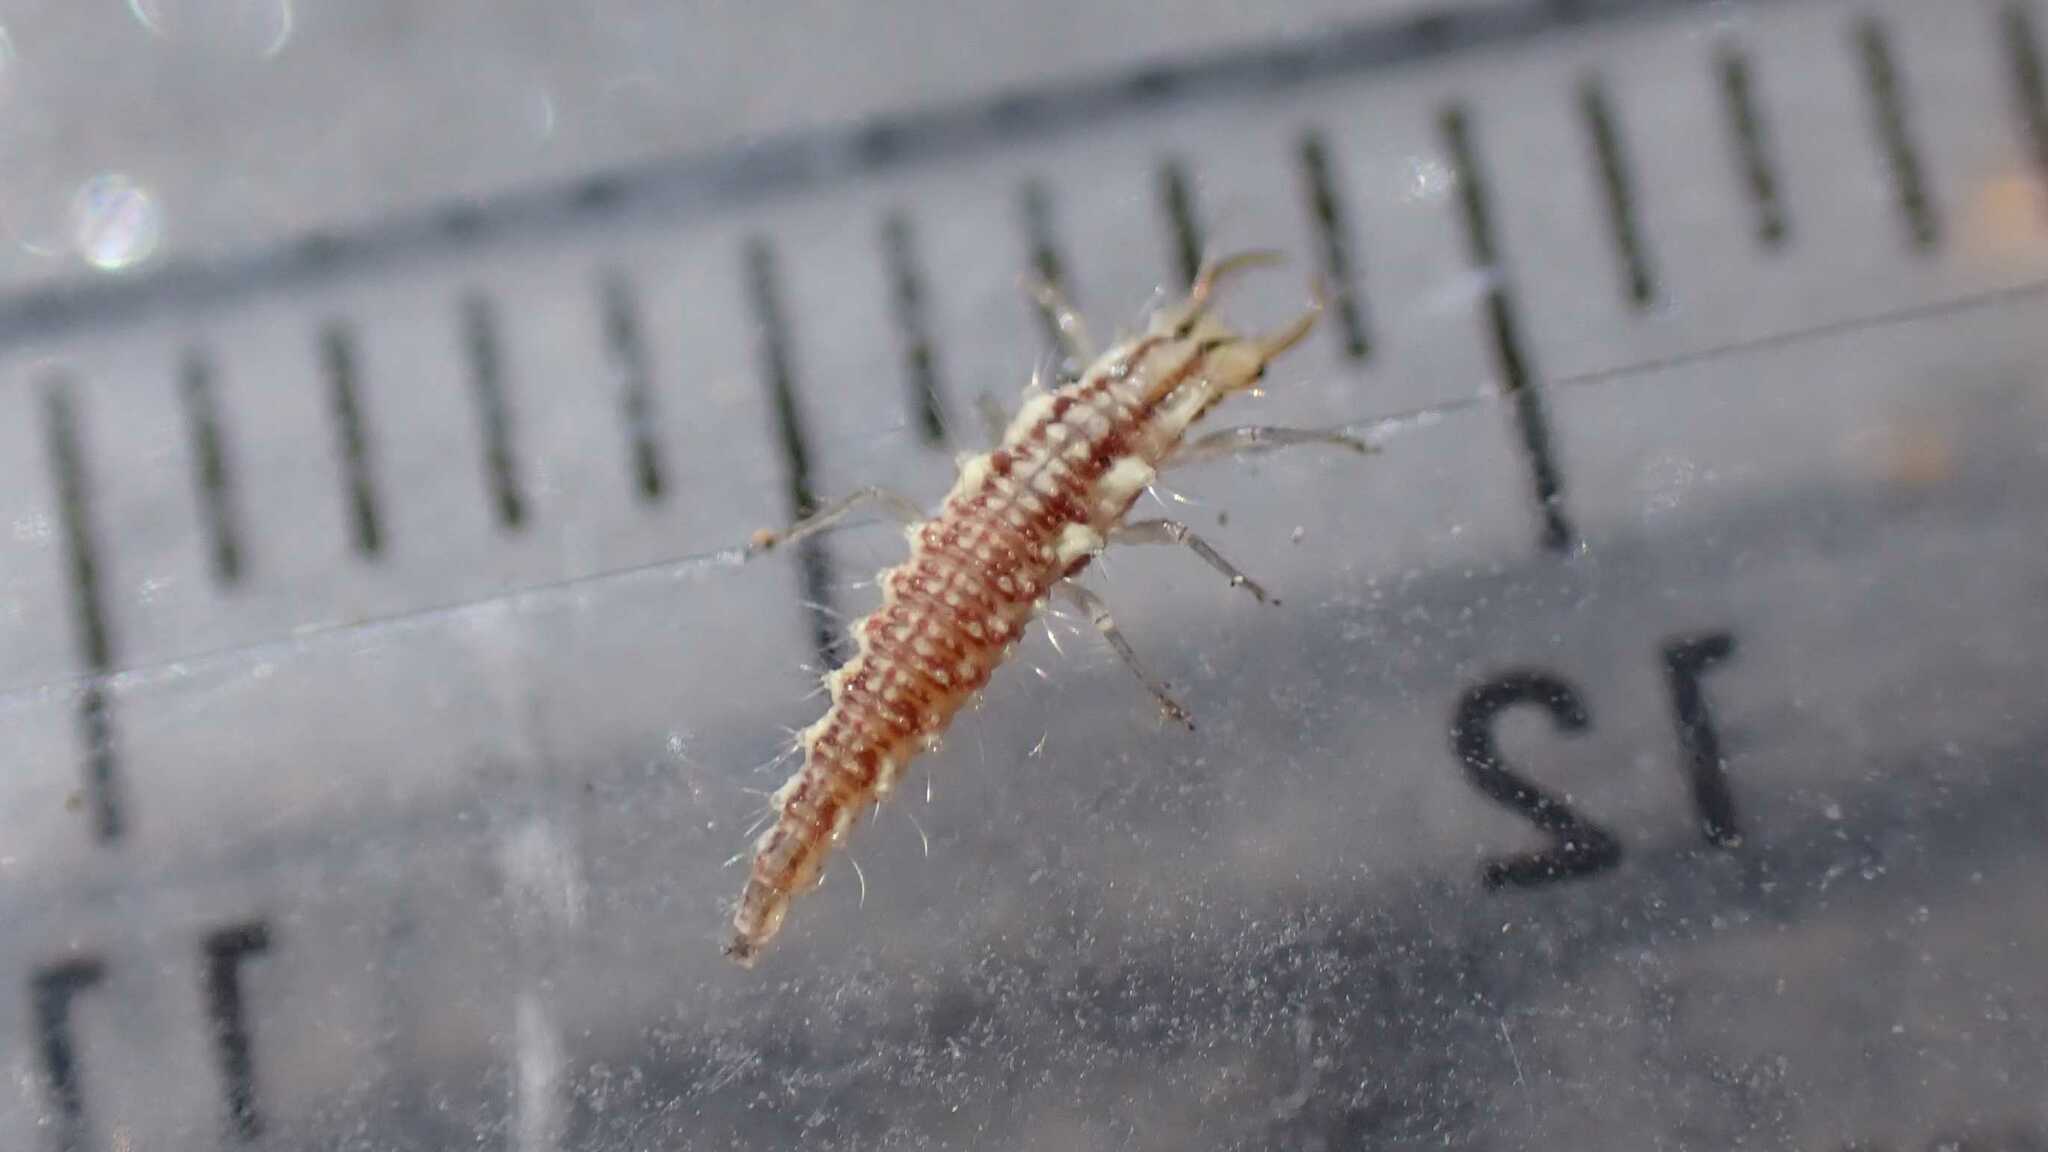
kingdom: Animalia
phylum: Arthropoda
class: Insecta
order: Neuroptera
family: Chrysopidae
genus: Chrysoperla
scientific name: Chrysoperla
